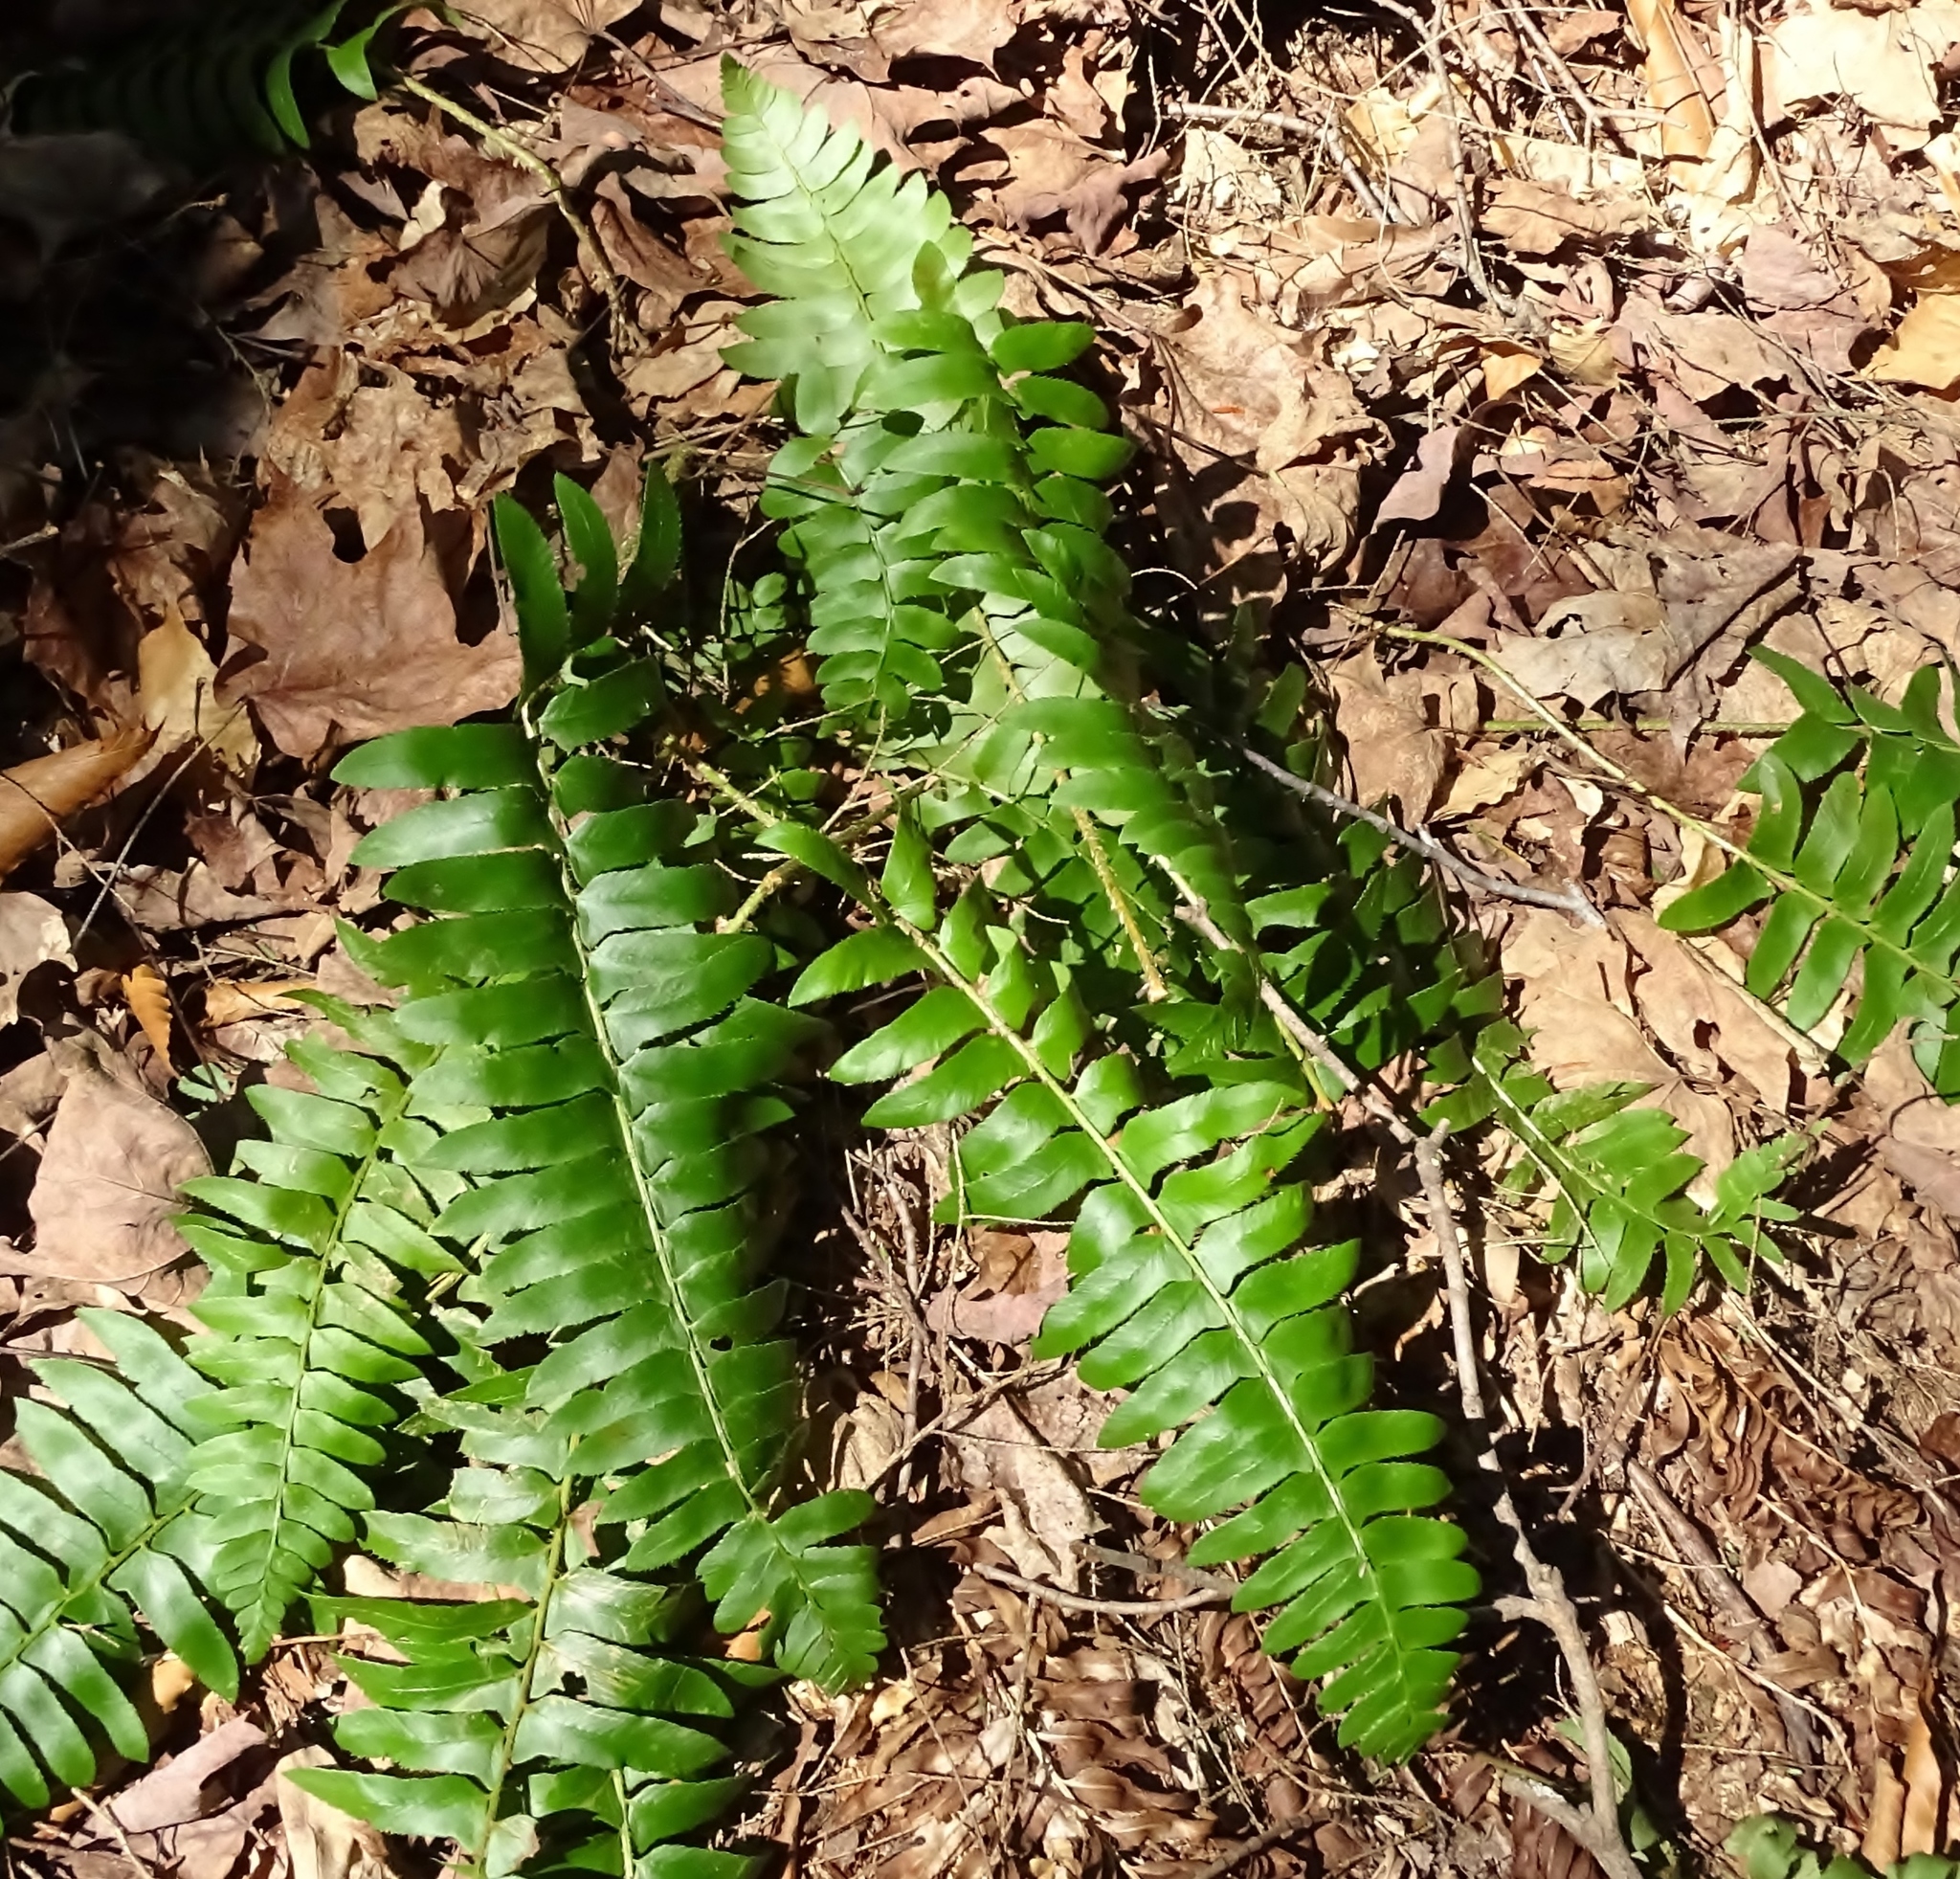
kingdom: Plantae
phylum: Tracheophyta
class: Polypodiopsida
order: Polypodiales
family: Dryopteridaceae
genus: Polystichum
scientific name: Polystichum acrostichoides
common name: Christmas fern
